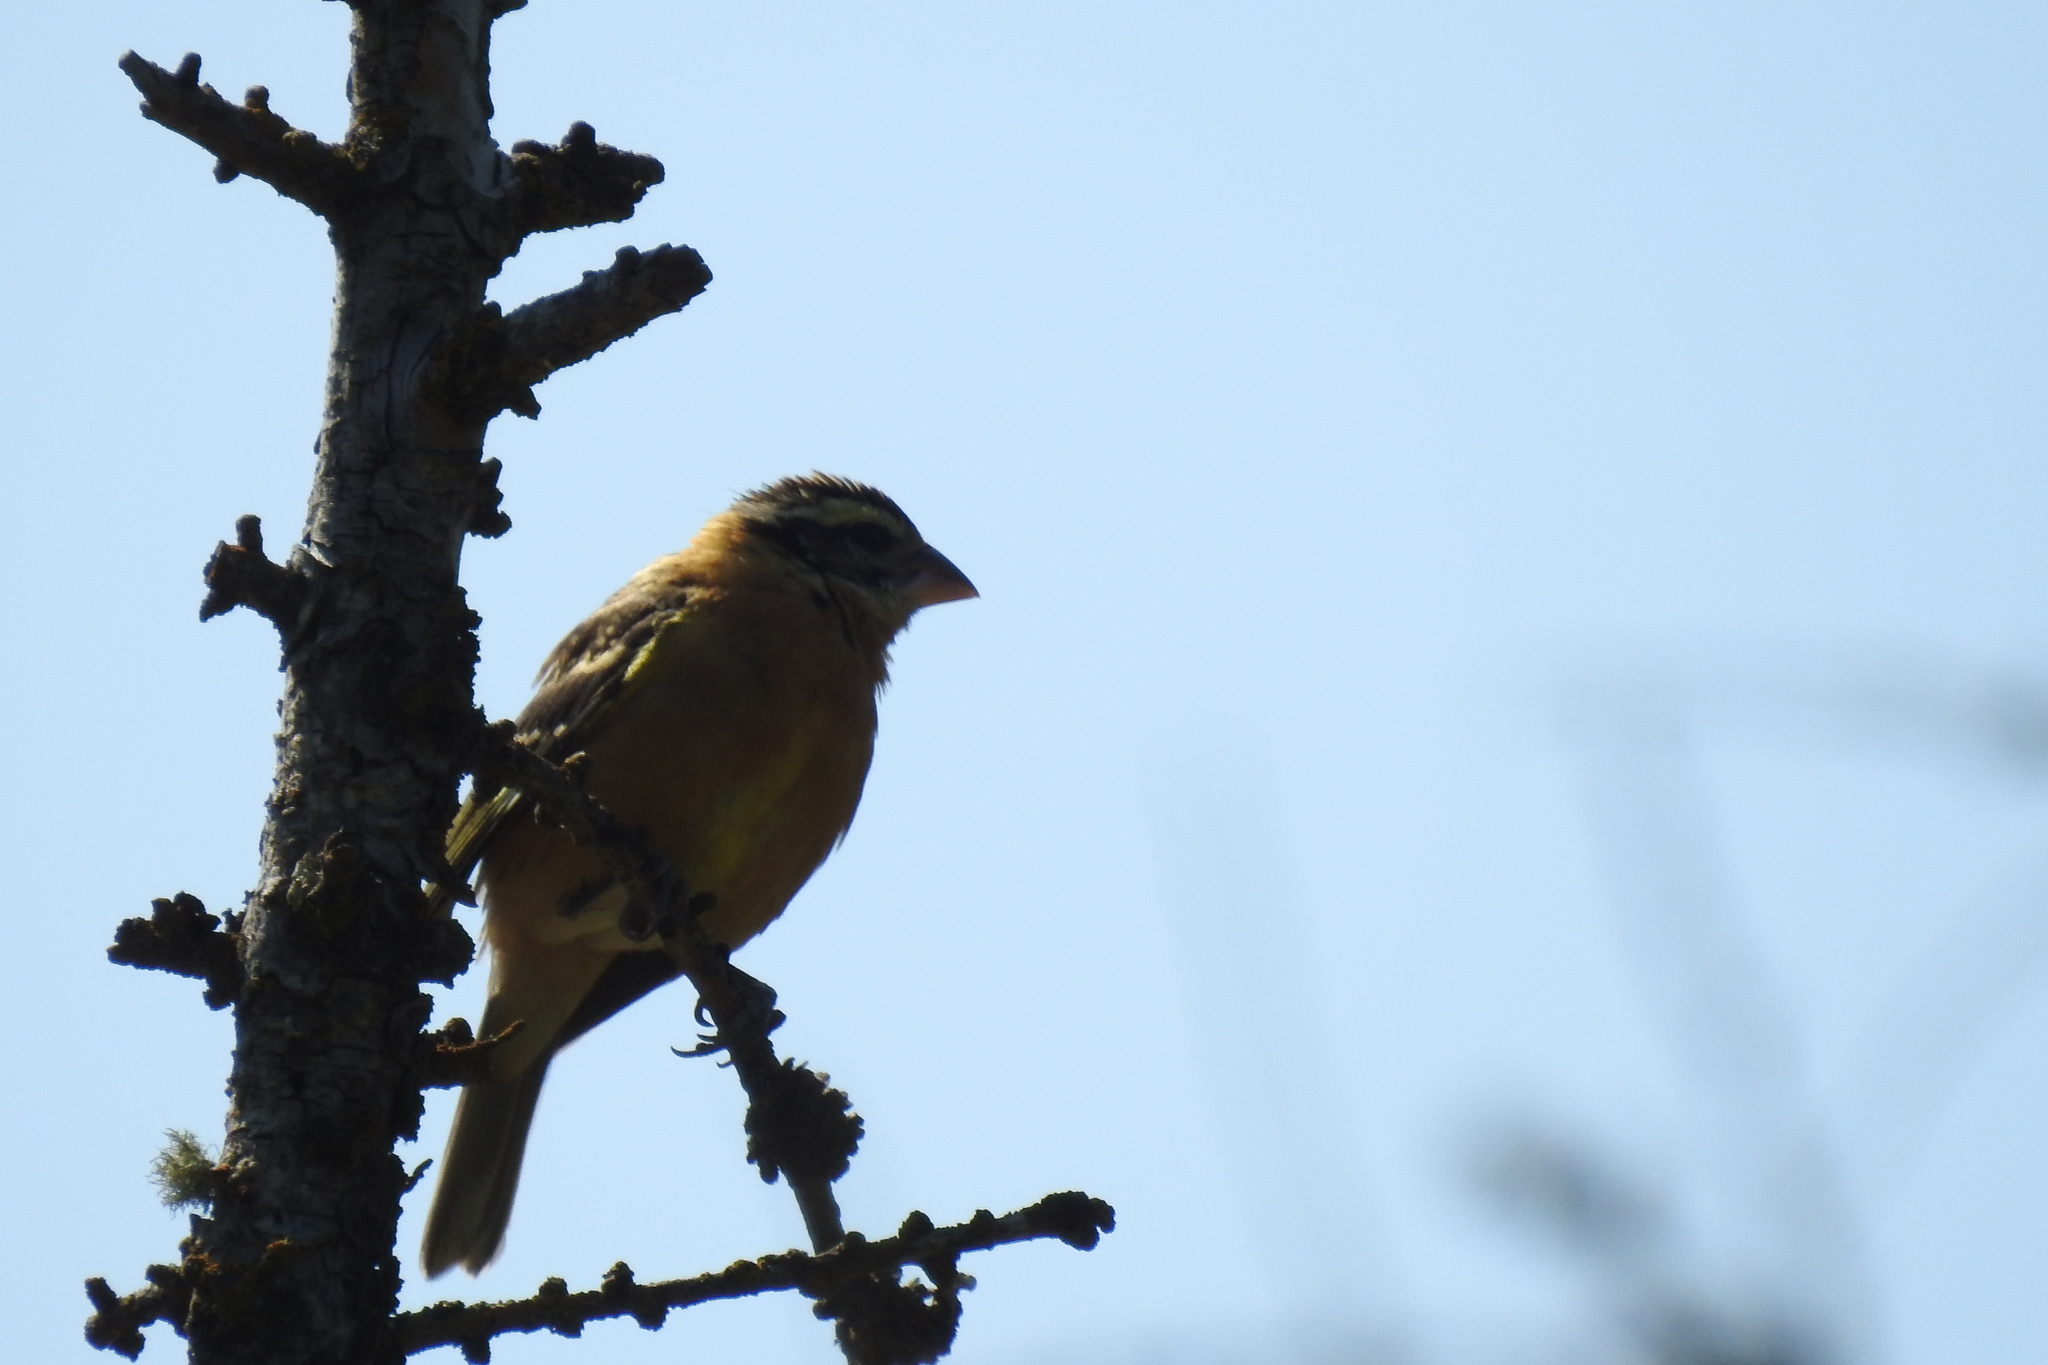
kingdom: Animalia
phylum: Chordata
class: Aves
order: Passeriformes
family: Cardinalidae
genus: Pheucticus
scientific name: Pheucticus melanocephalus
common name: Black-headed grosbeak
